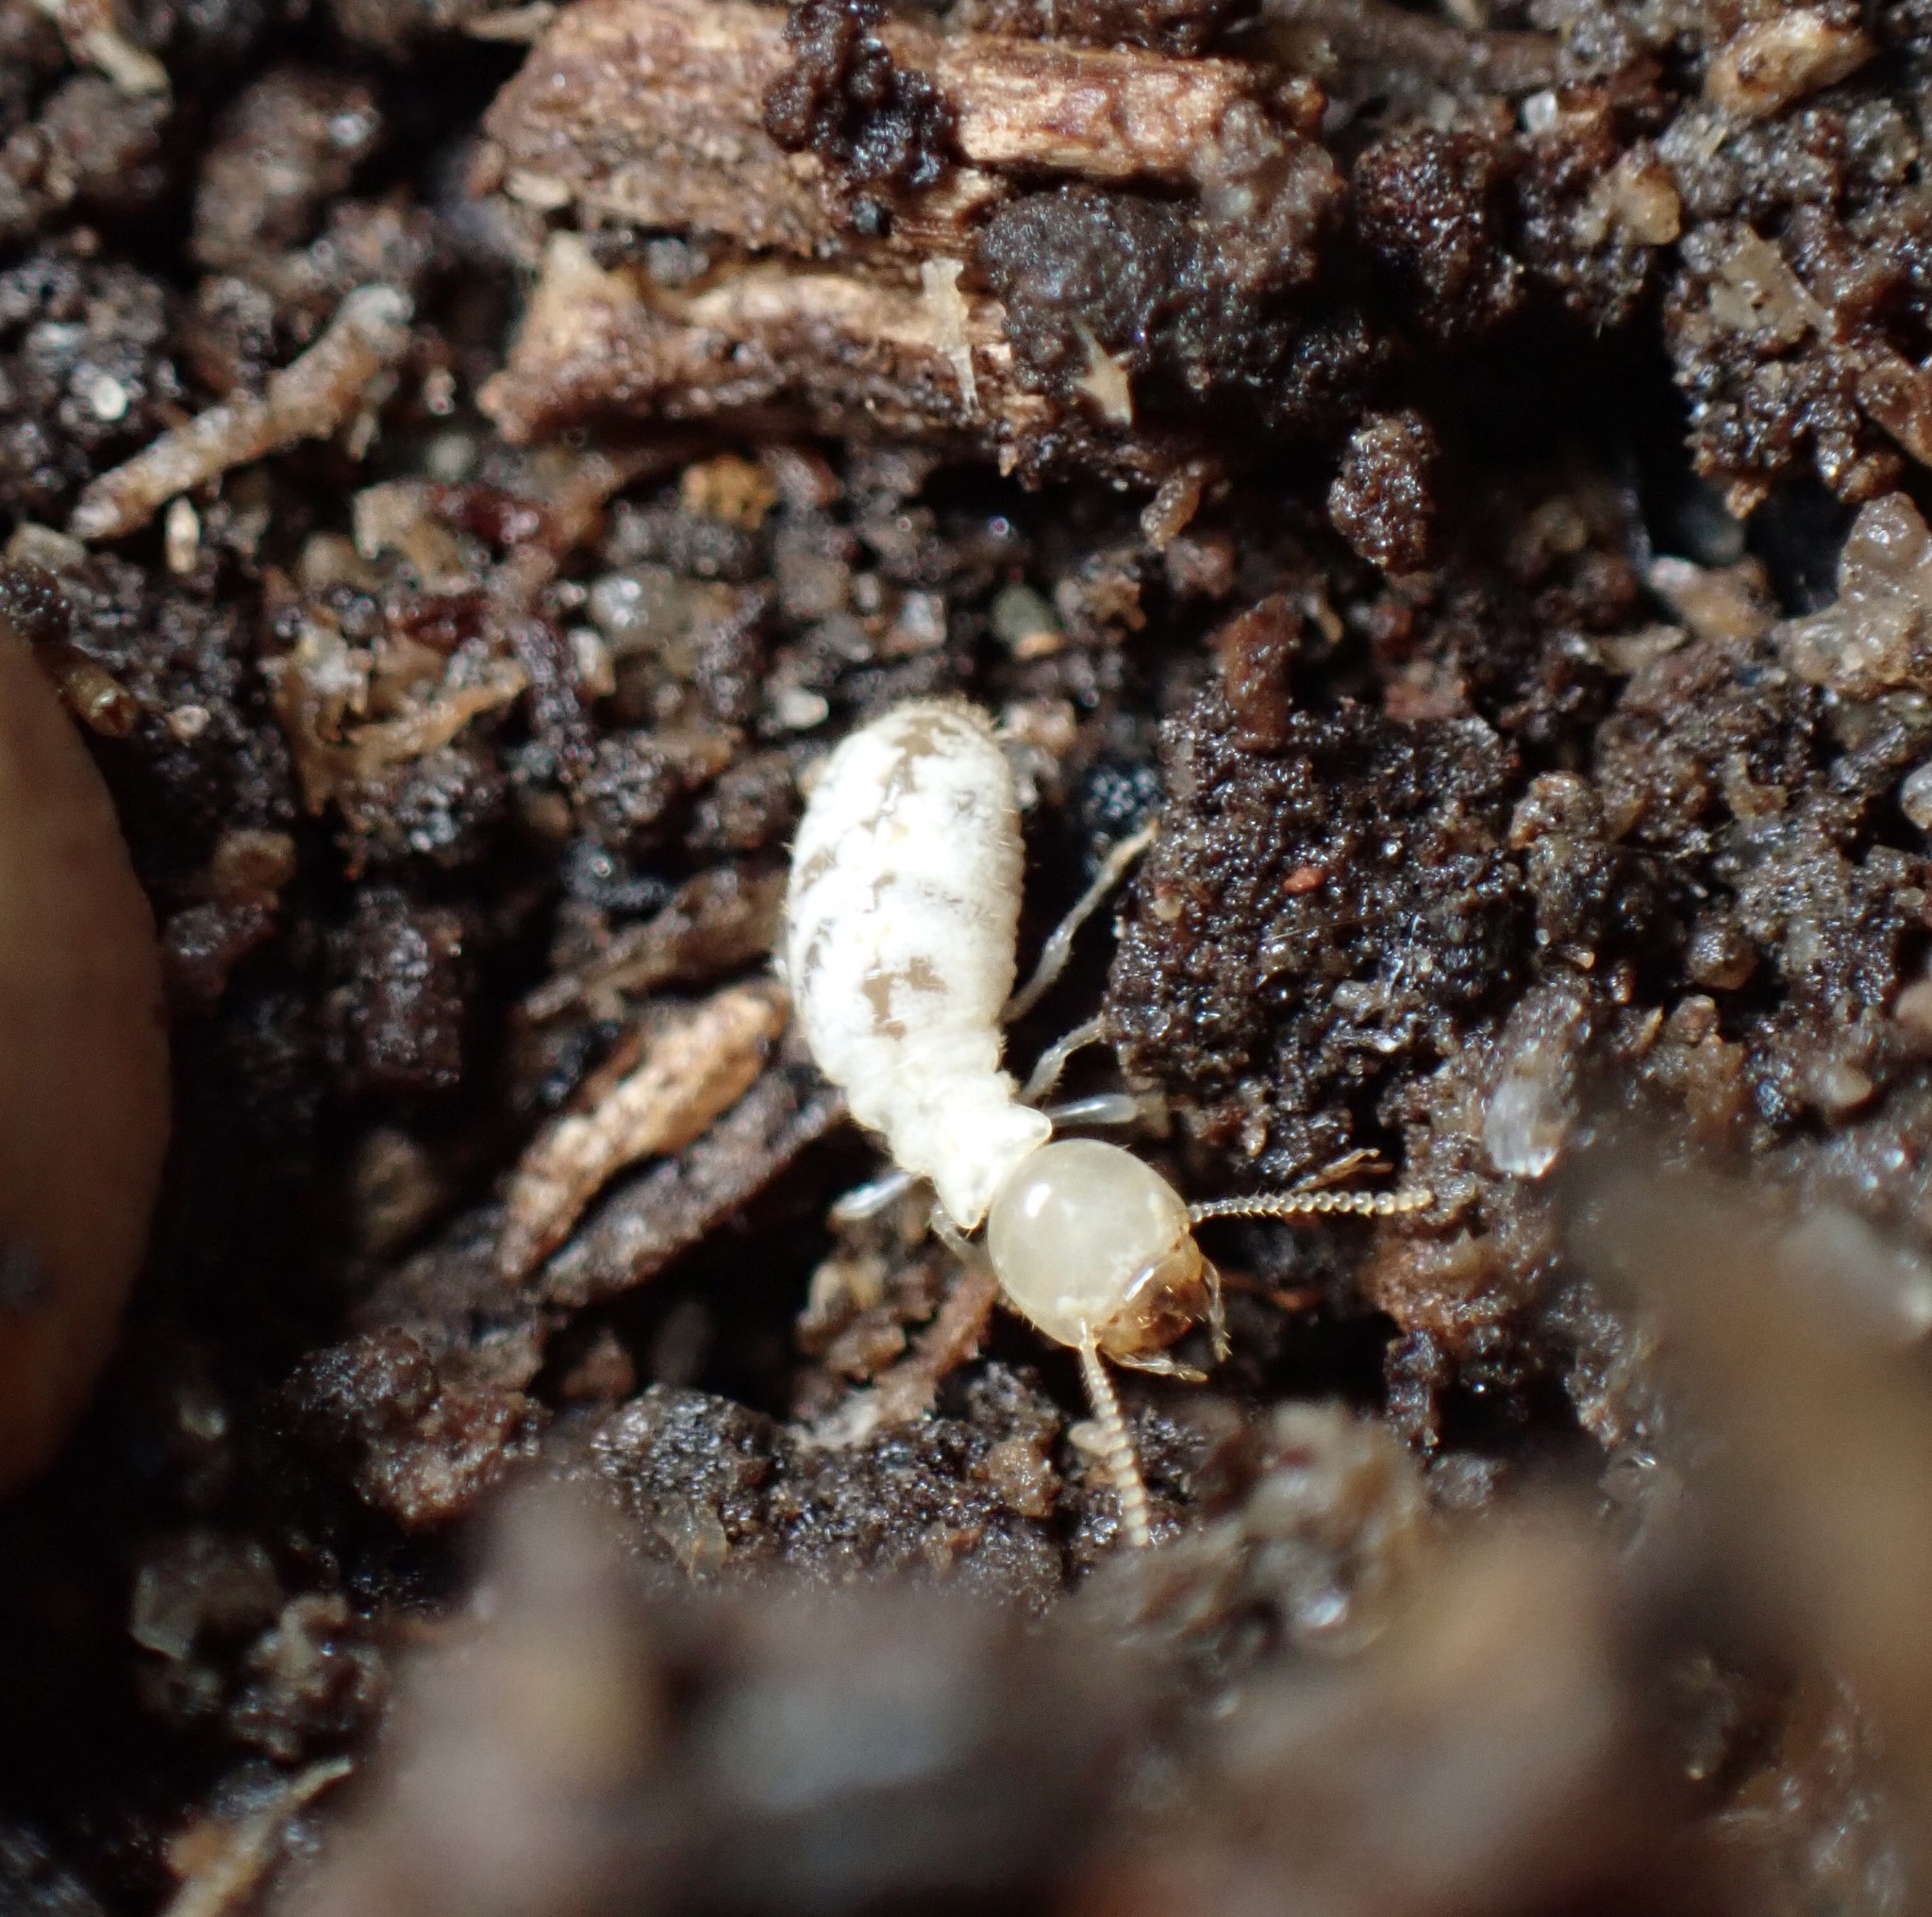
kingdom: Animalia
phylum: Arthropoda
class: Insecta
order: Blattodea
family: Rhinotermitidae
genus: Reticulitermes
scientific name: Reticulitermes flavipes
